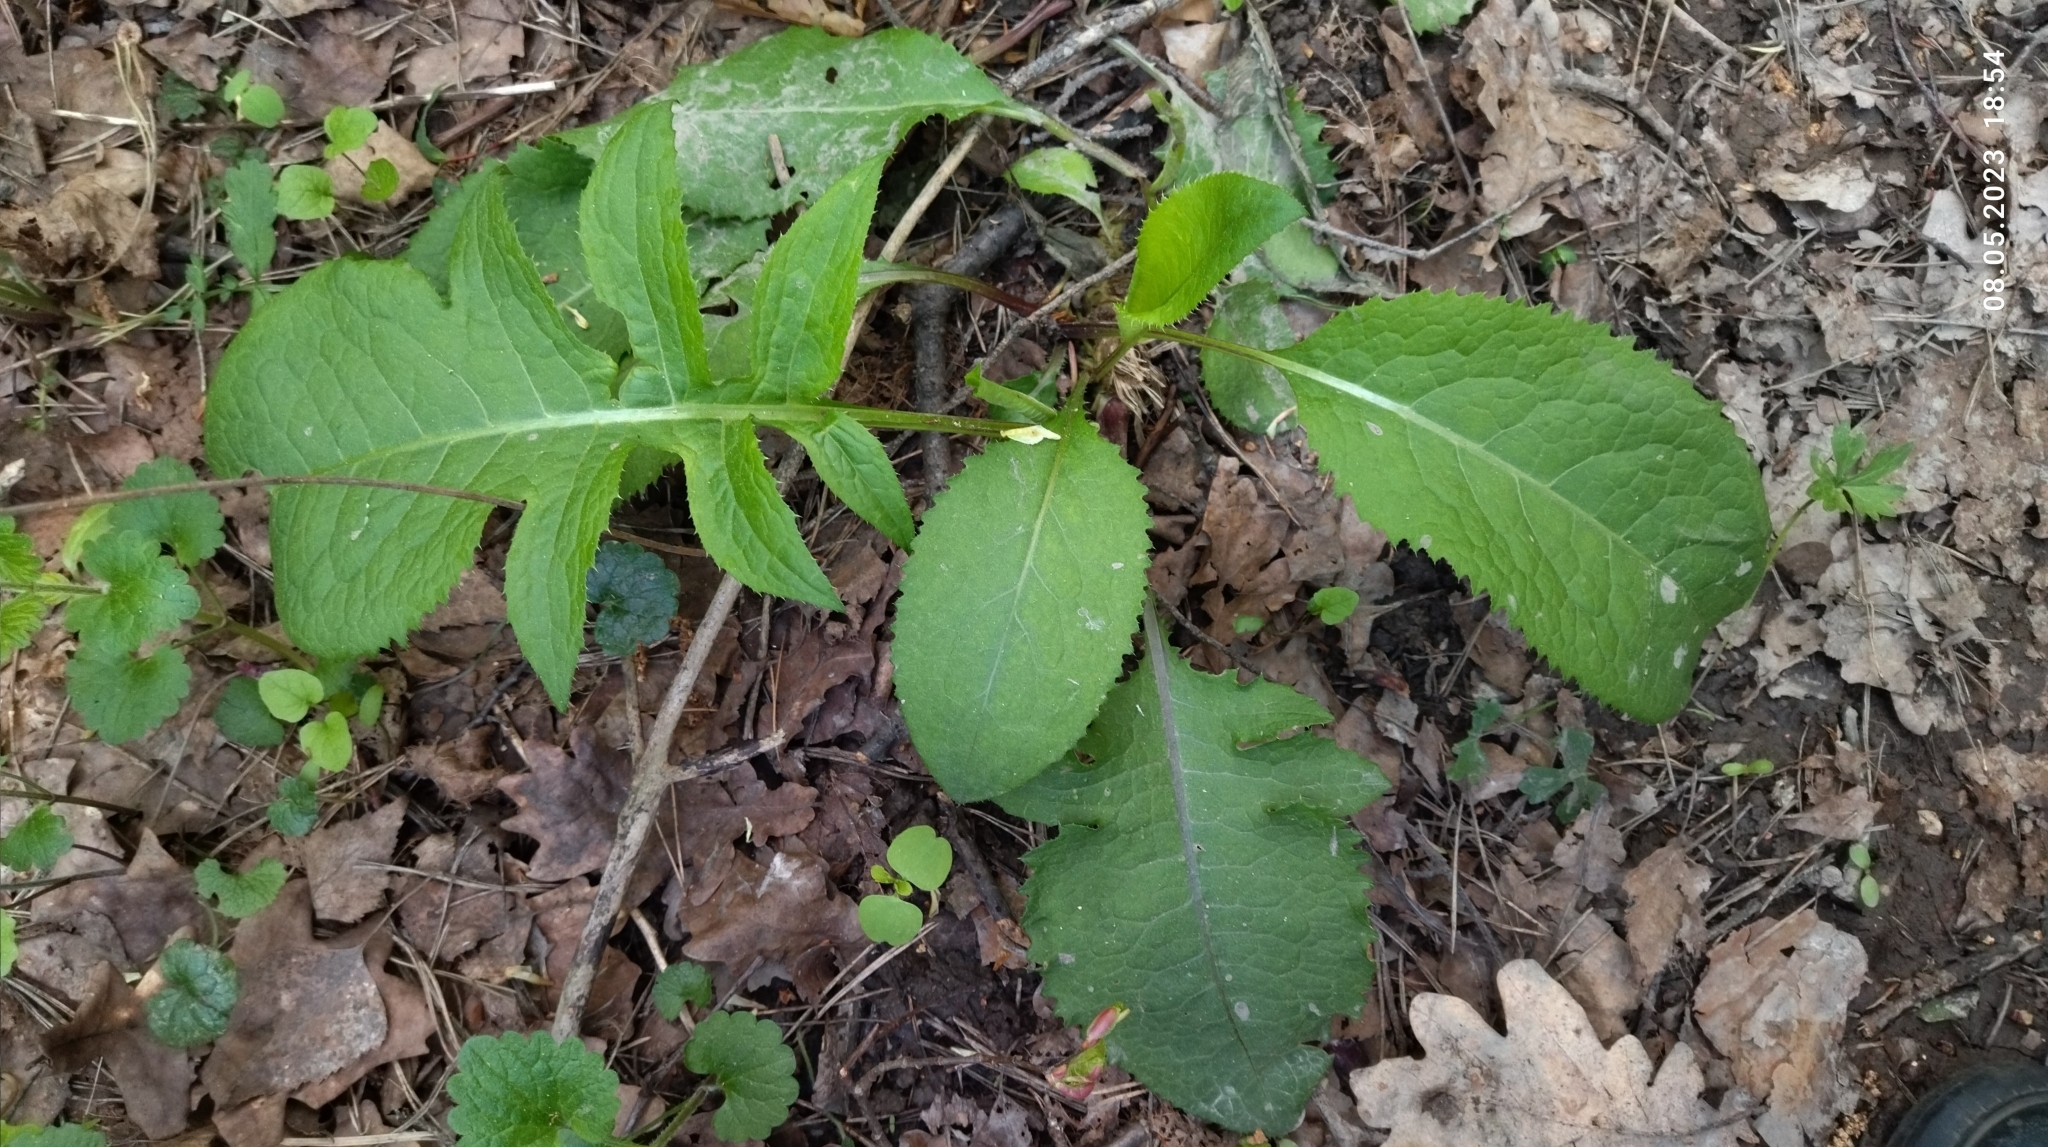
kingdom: Plantae
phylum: Tracheophyta
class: Magnoliopsida
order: Asterales
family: Asteraceae
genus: Cirsium
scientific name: Cirsium oleraceum
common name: Cabbage thistle
